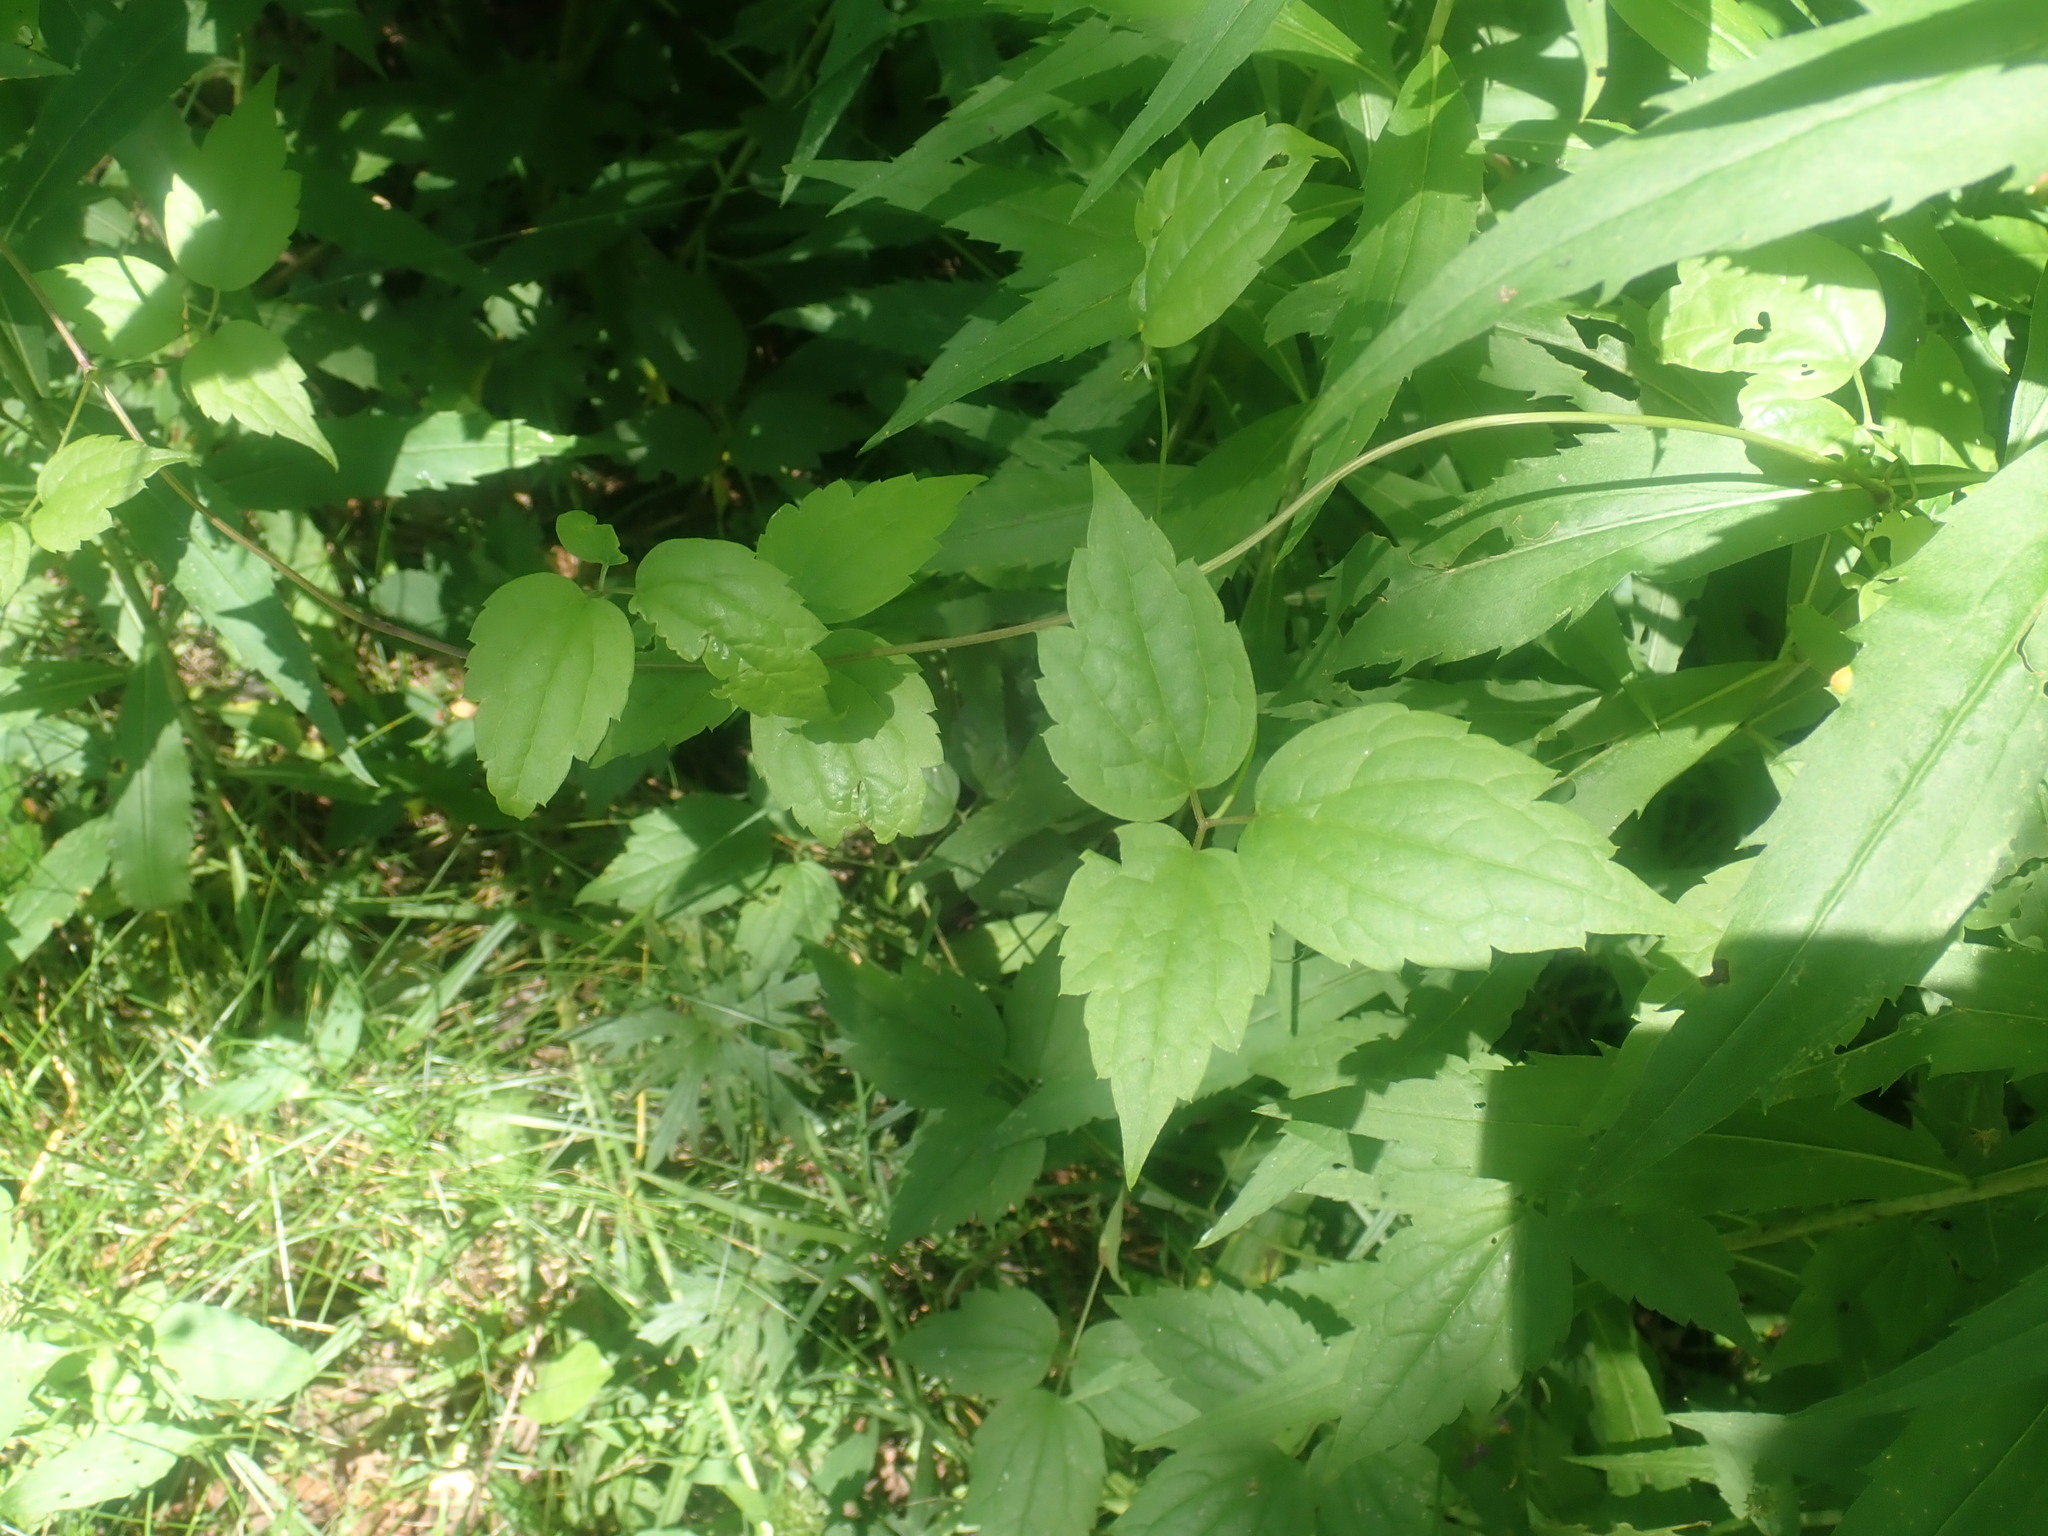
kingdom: Plantae
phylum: Tracheophyta
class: Magnoliopsida
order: Ranunculales
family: Ranunculaceae
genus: Clematis
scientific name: Clematis virginiana
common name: Virgin's-bower
